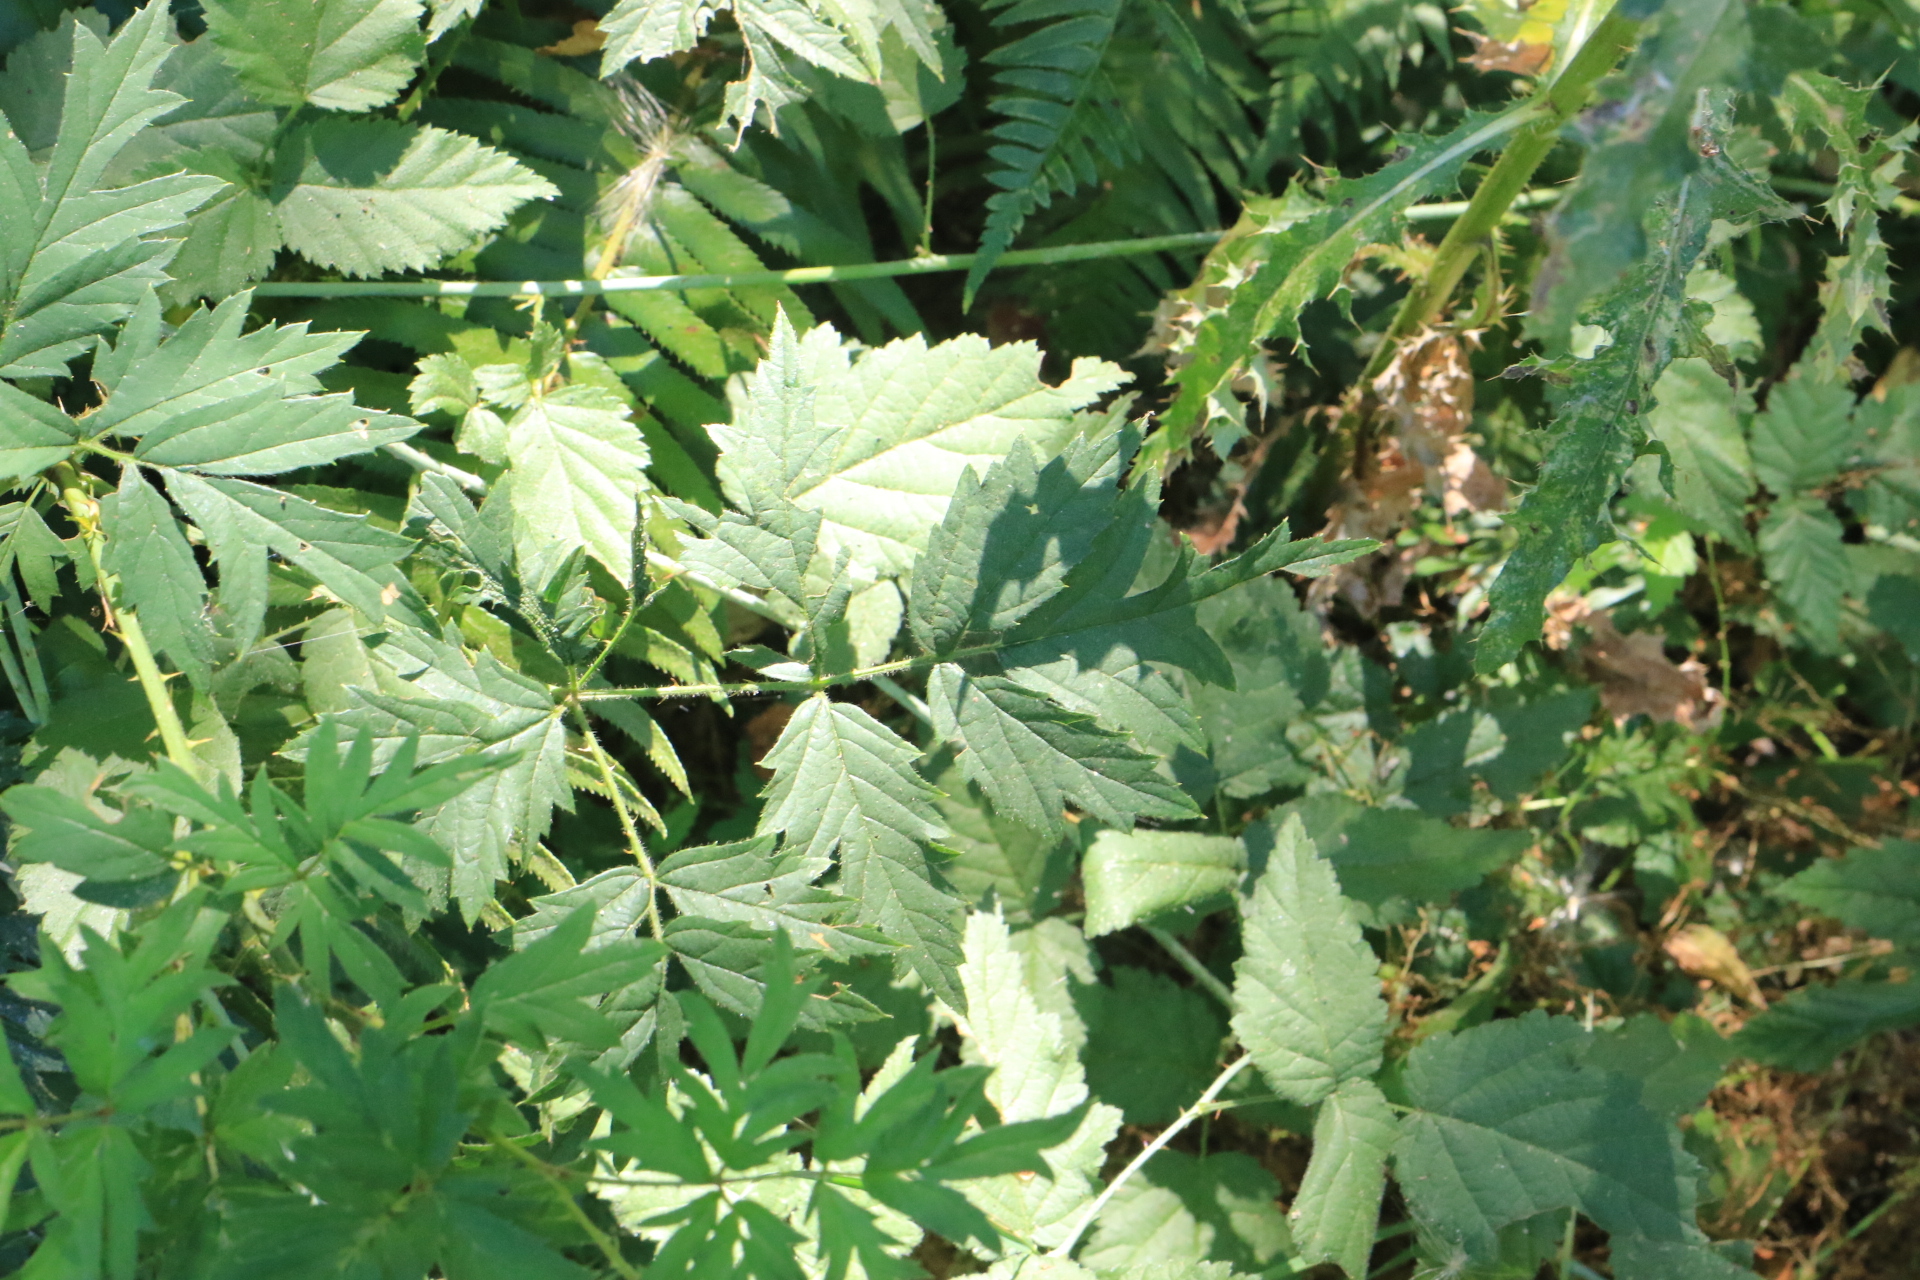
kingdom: Plantae
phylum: Tracheophyta
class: Magnoliopsida
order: Rosales
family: Rosaceae
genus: Rubus
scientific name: Rubus laciniatus
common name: Evergreen blackberry
